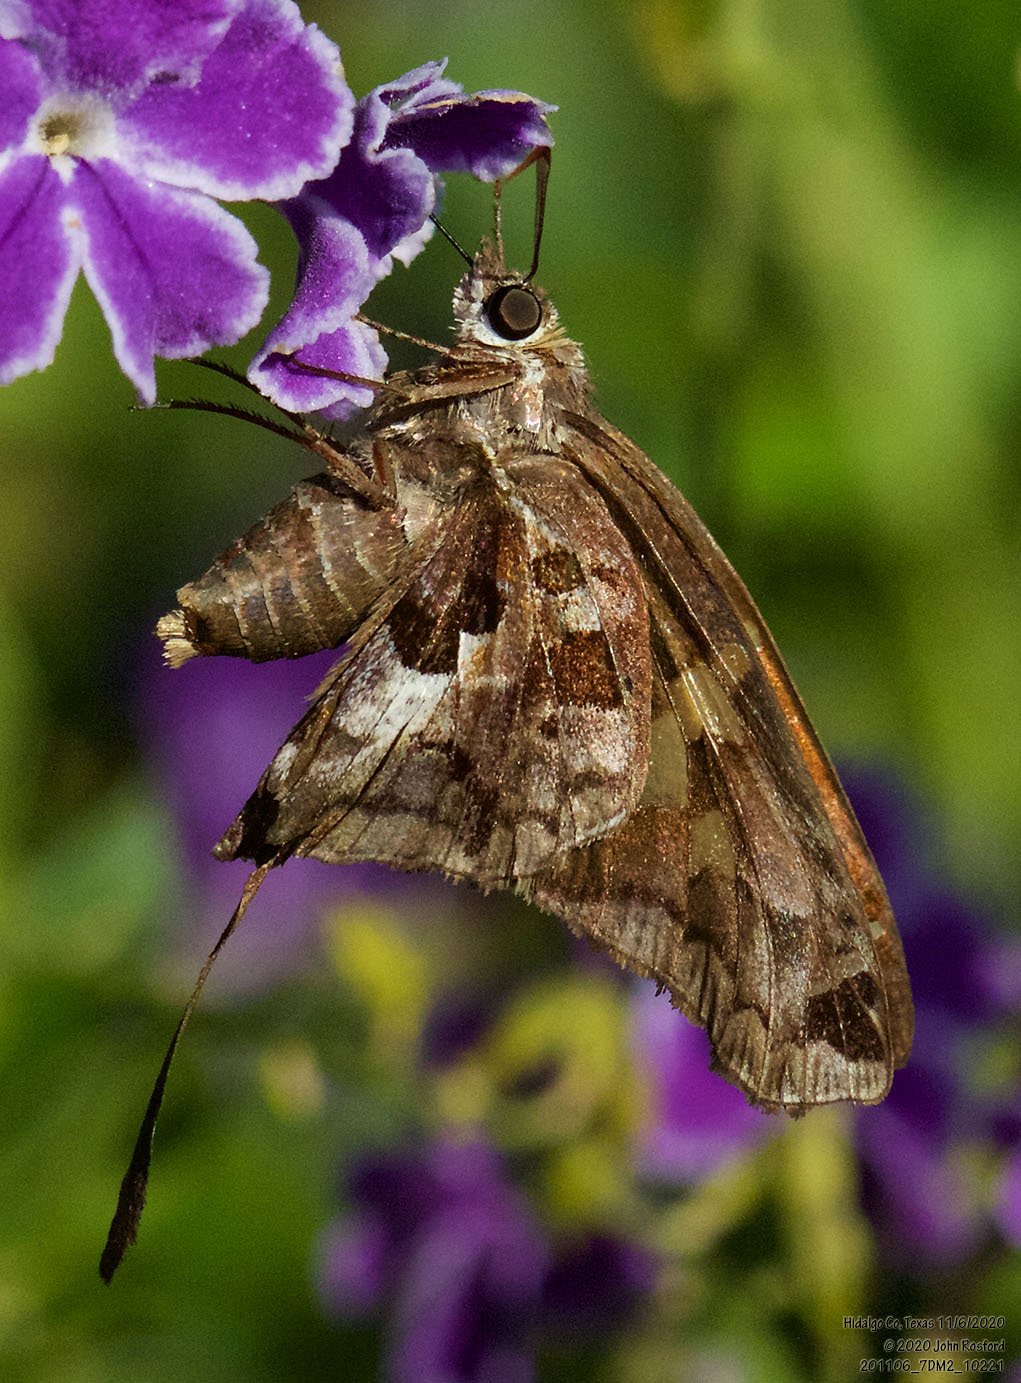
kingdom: Animalia
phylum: Arthropoda
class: Insecta
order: Lepidoptera
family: Hesperiidae
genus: Chioides
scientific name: Chioides zilpa
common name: Zilpa longtail
